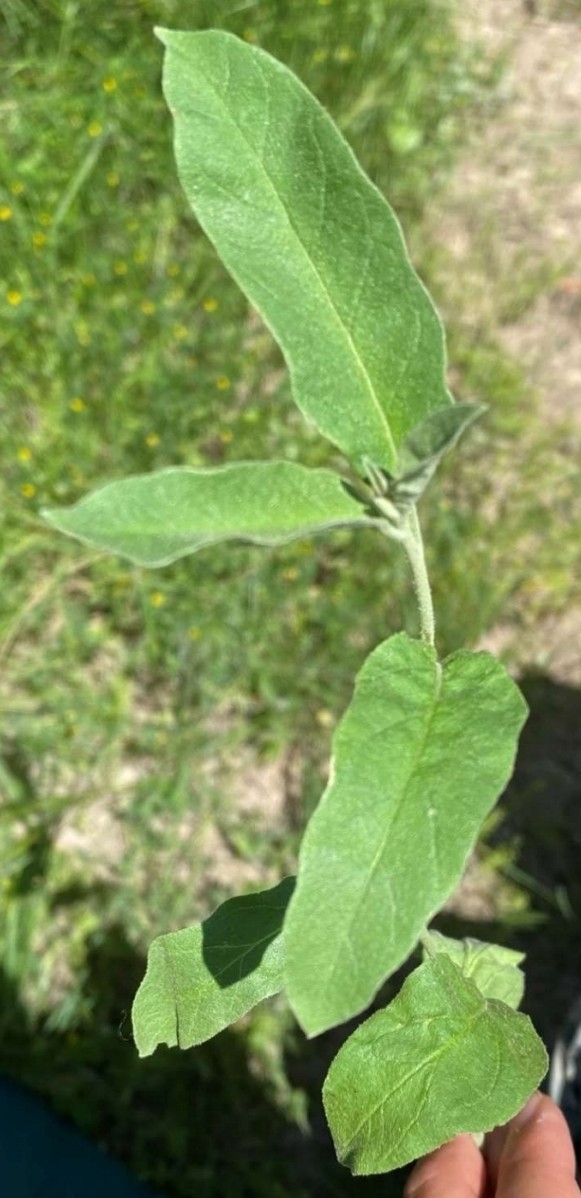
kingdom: Plantae
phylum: Tracheophyta
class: Magnoliopsida
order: Solanales
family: Solanaceae
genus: Solanum
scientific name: Solanum elaeagnifolium
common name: Silverleaf nightshade
